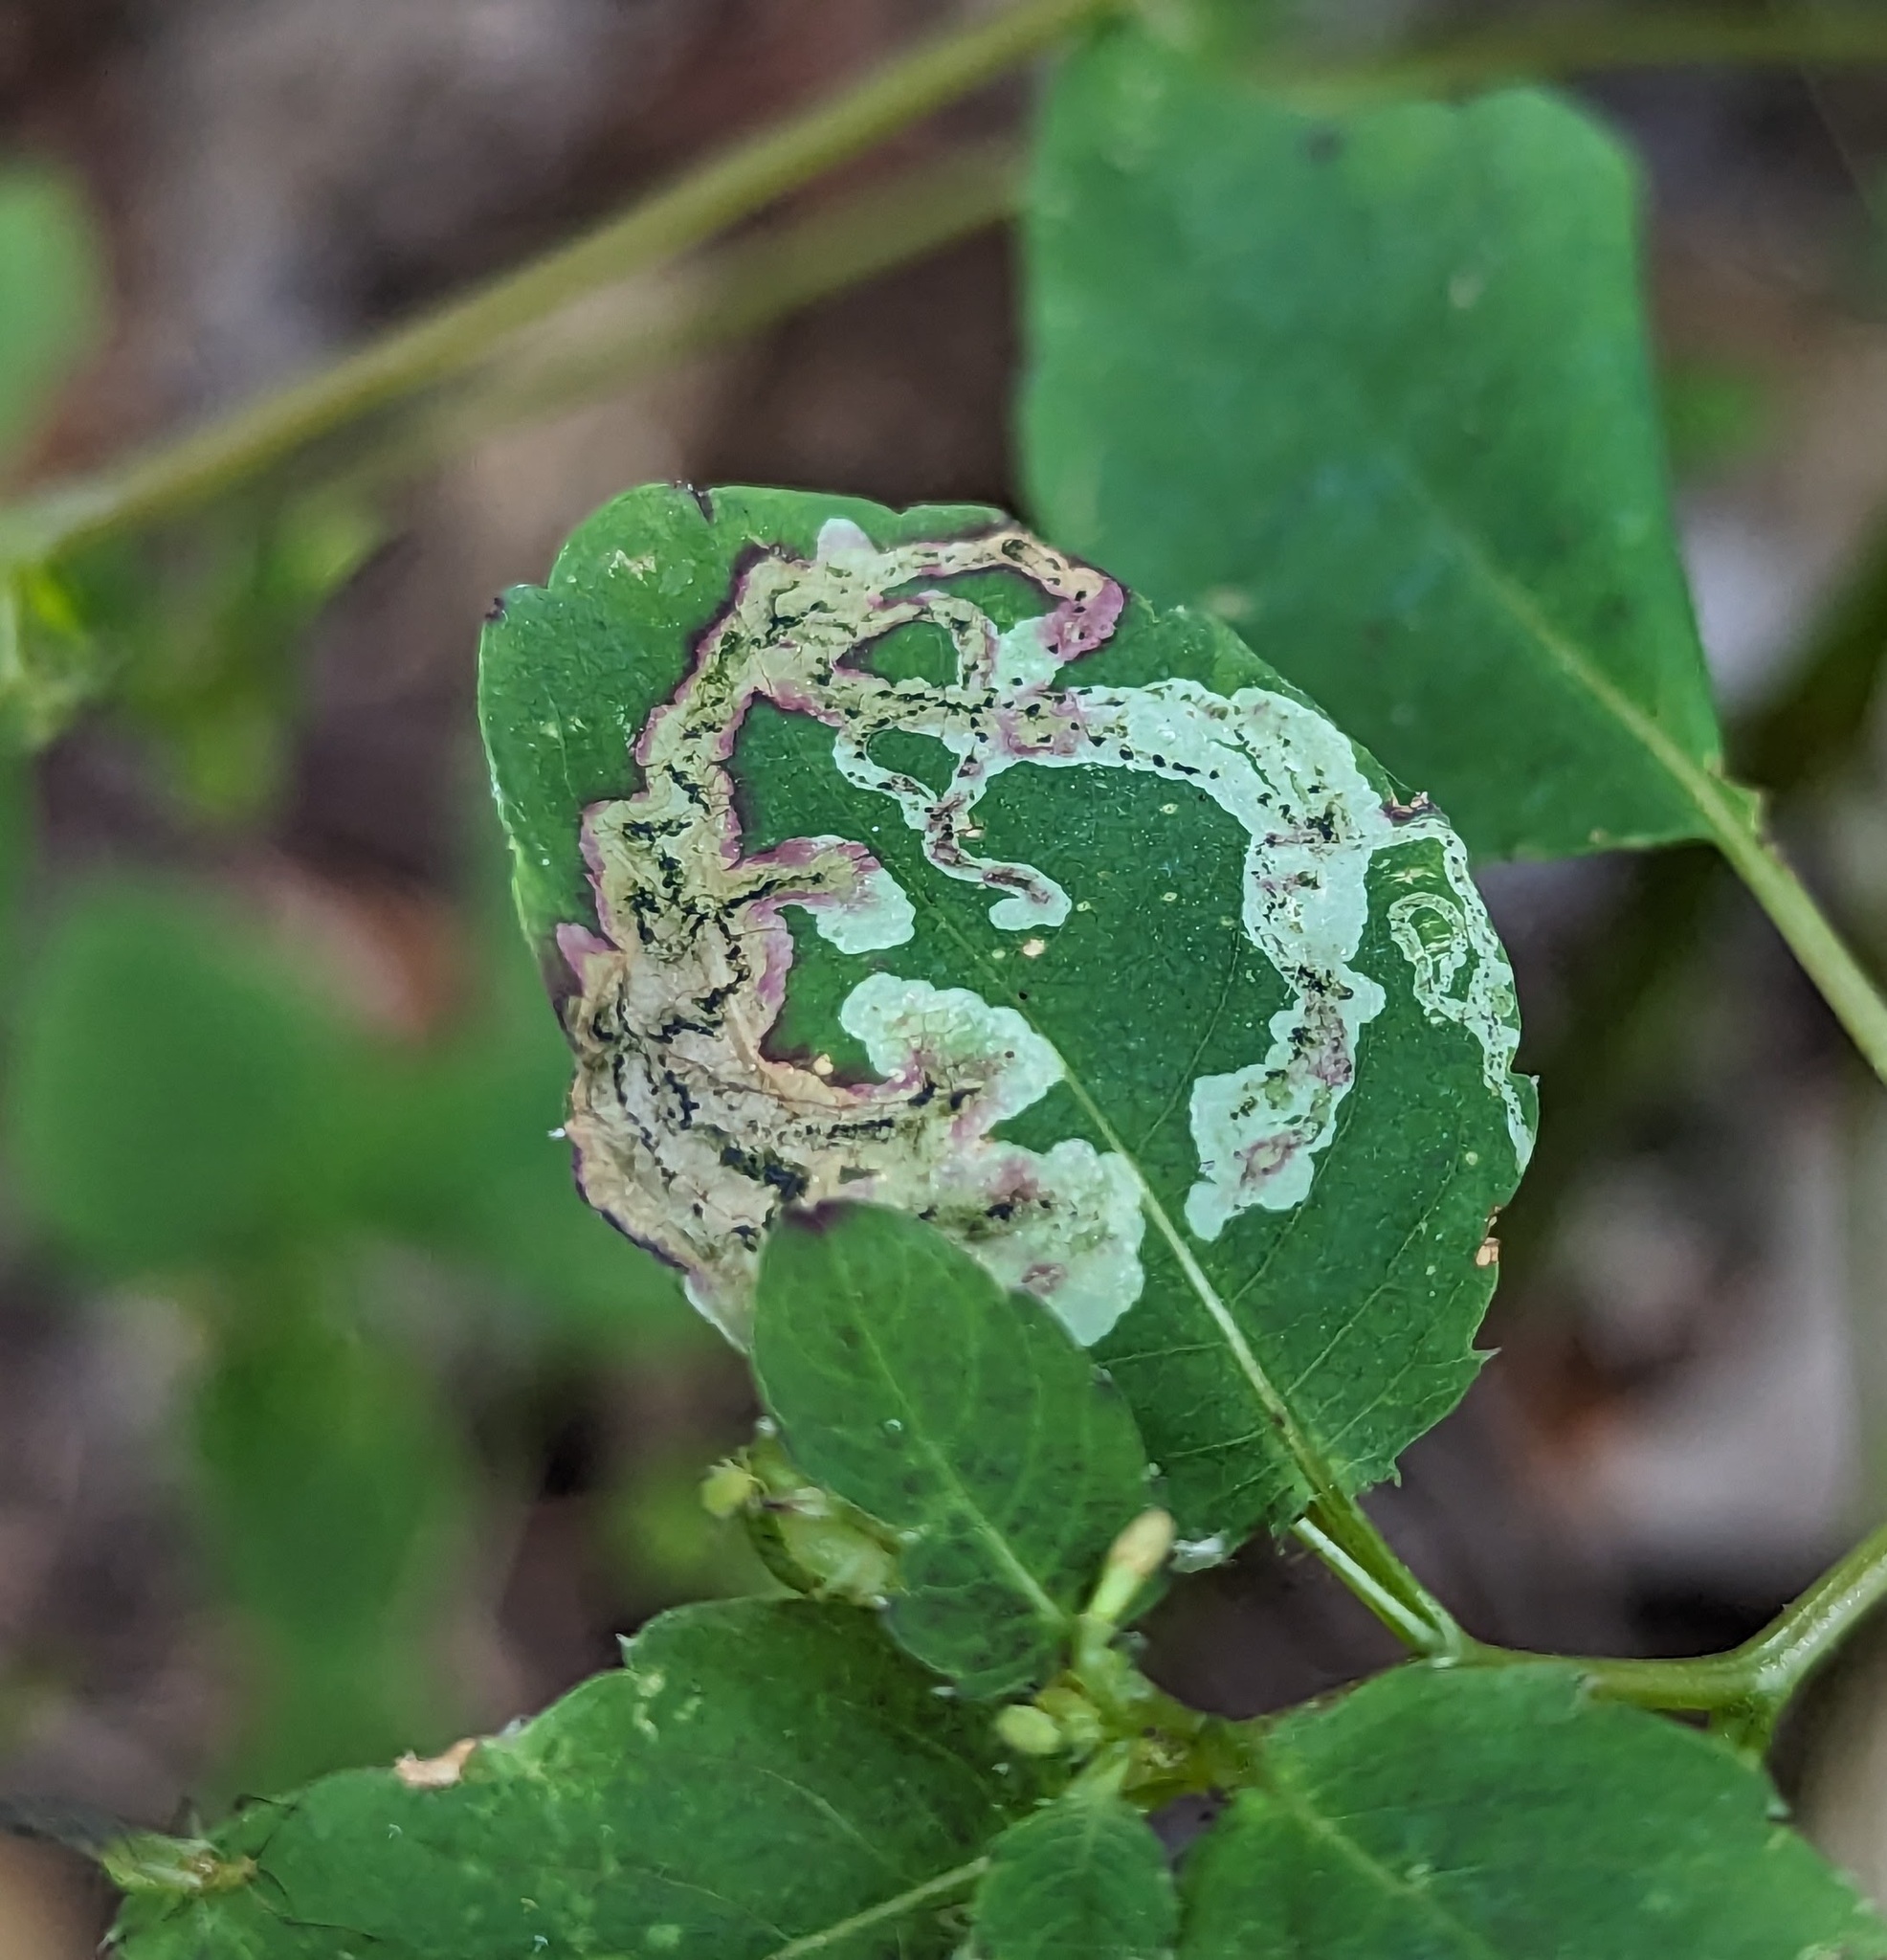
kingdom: Animalia
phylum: Arthropoda
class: Insecta
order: Diptera
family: Agromyzidae
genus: Phytoliriomyza
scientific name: Phytoliriomyza melampyga
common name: Jewelweed leaf-miner fly
